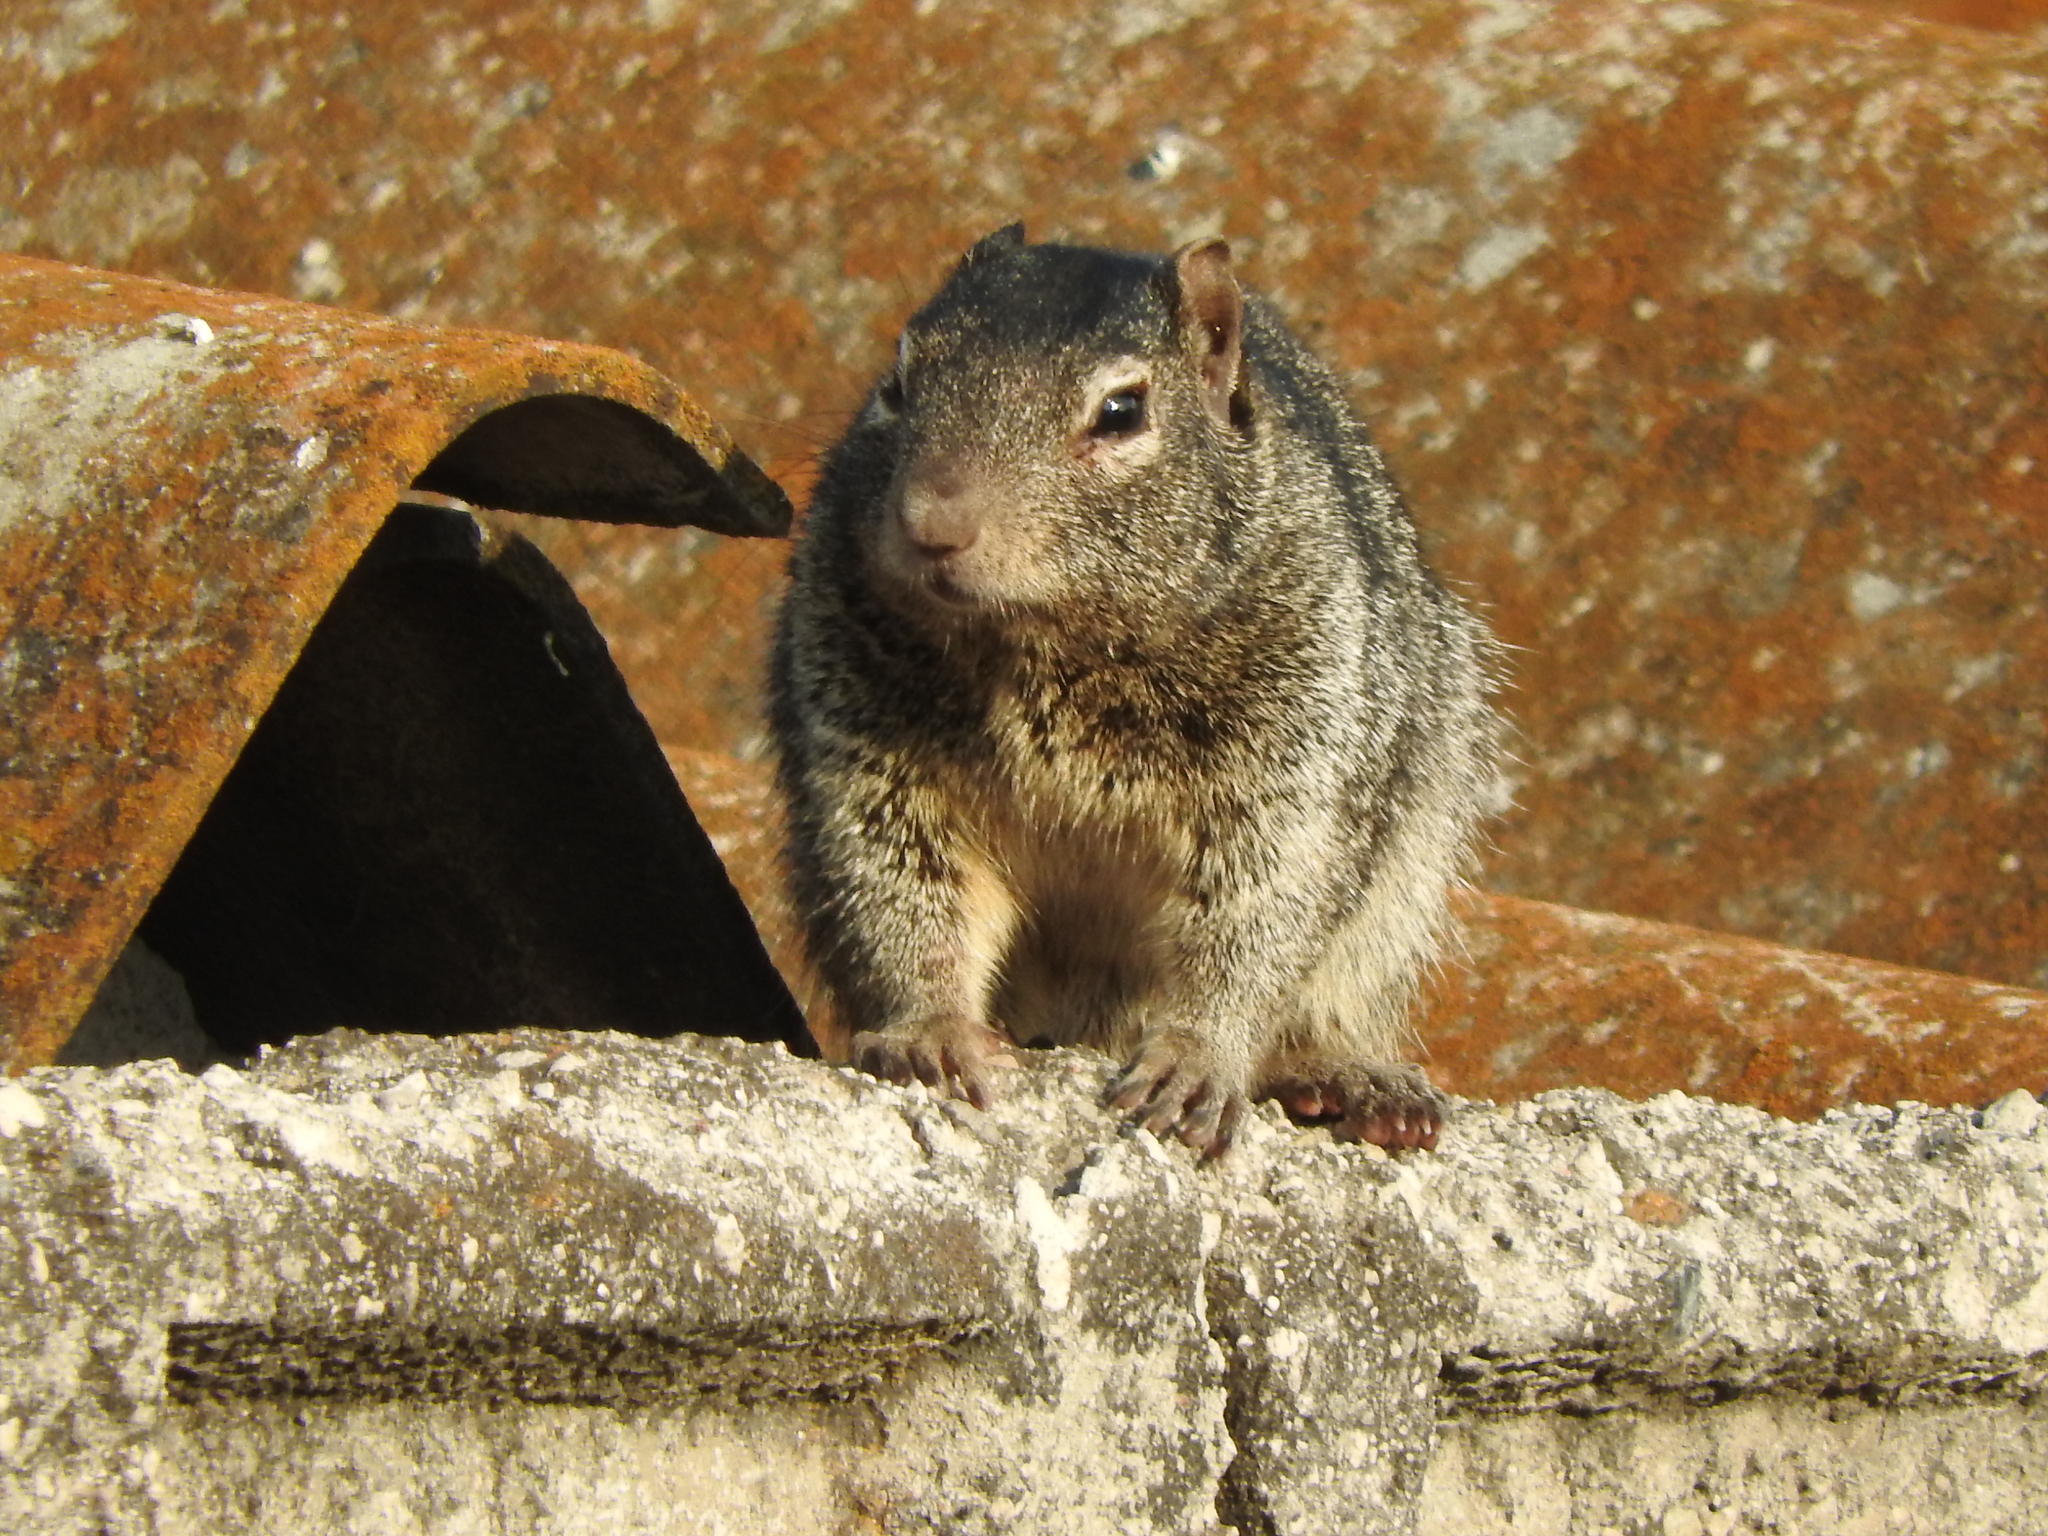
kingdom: Animalia
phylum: Chordata
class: Mammalia
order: Rodentia
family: Sciuridae
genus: Otospermophilus
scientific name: Otospermophilus variegatus
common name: Rock squirrel
